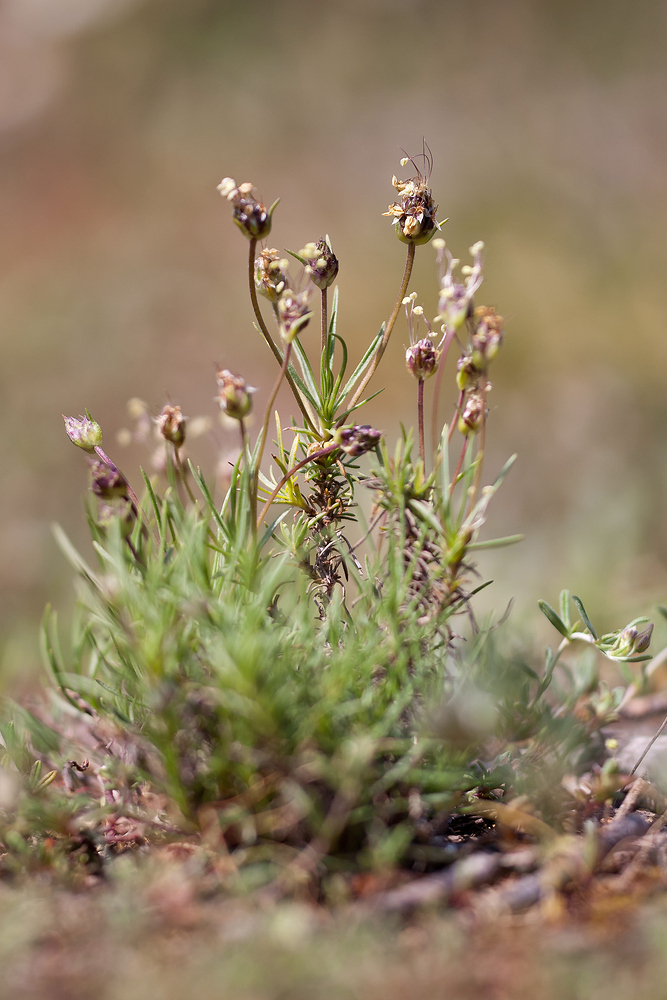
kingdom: Plantae
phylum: Tracheophyta
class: Magnoliopsida
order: Lamiales
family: Plantaginaceae
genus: Plantago
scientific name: Plantago sempervirens
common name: Shrubby plantain
